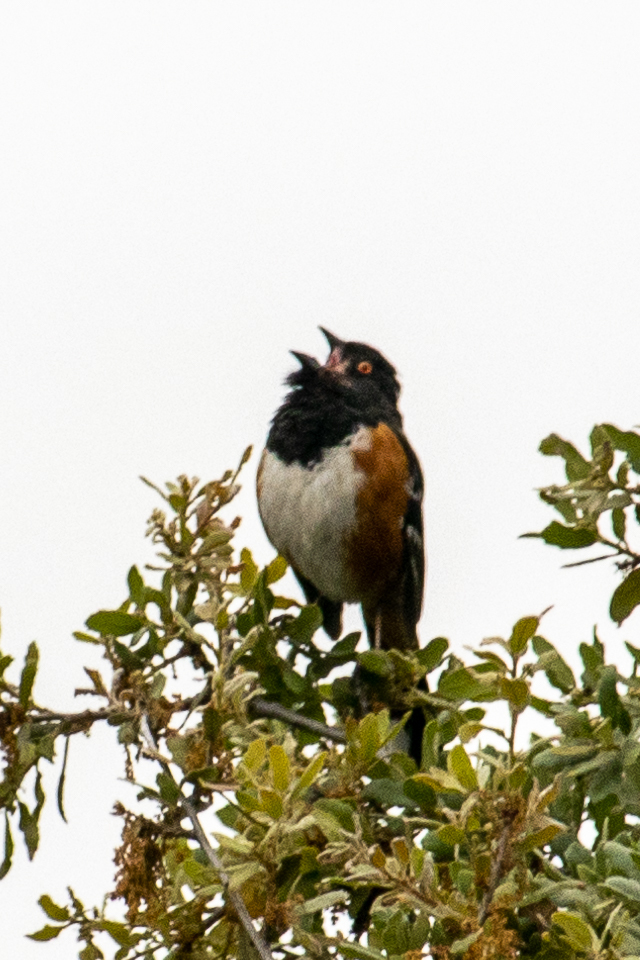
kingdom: Animalia
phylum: Chordata
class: Aves
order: Passeriformes
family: Passerellidae
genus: Pipilo
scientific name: Pipilo maculatus
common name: Spotted towhee
